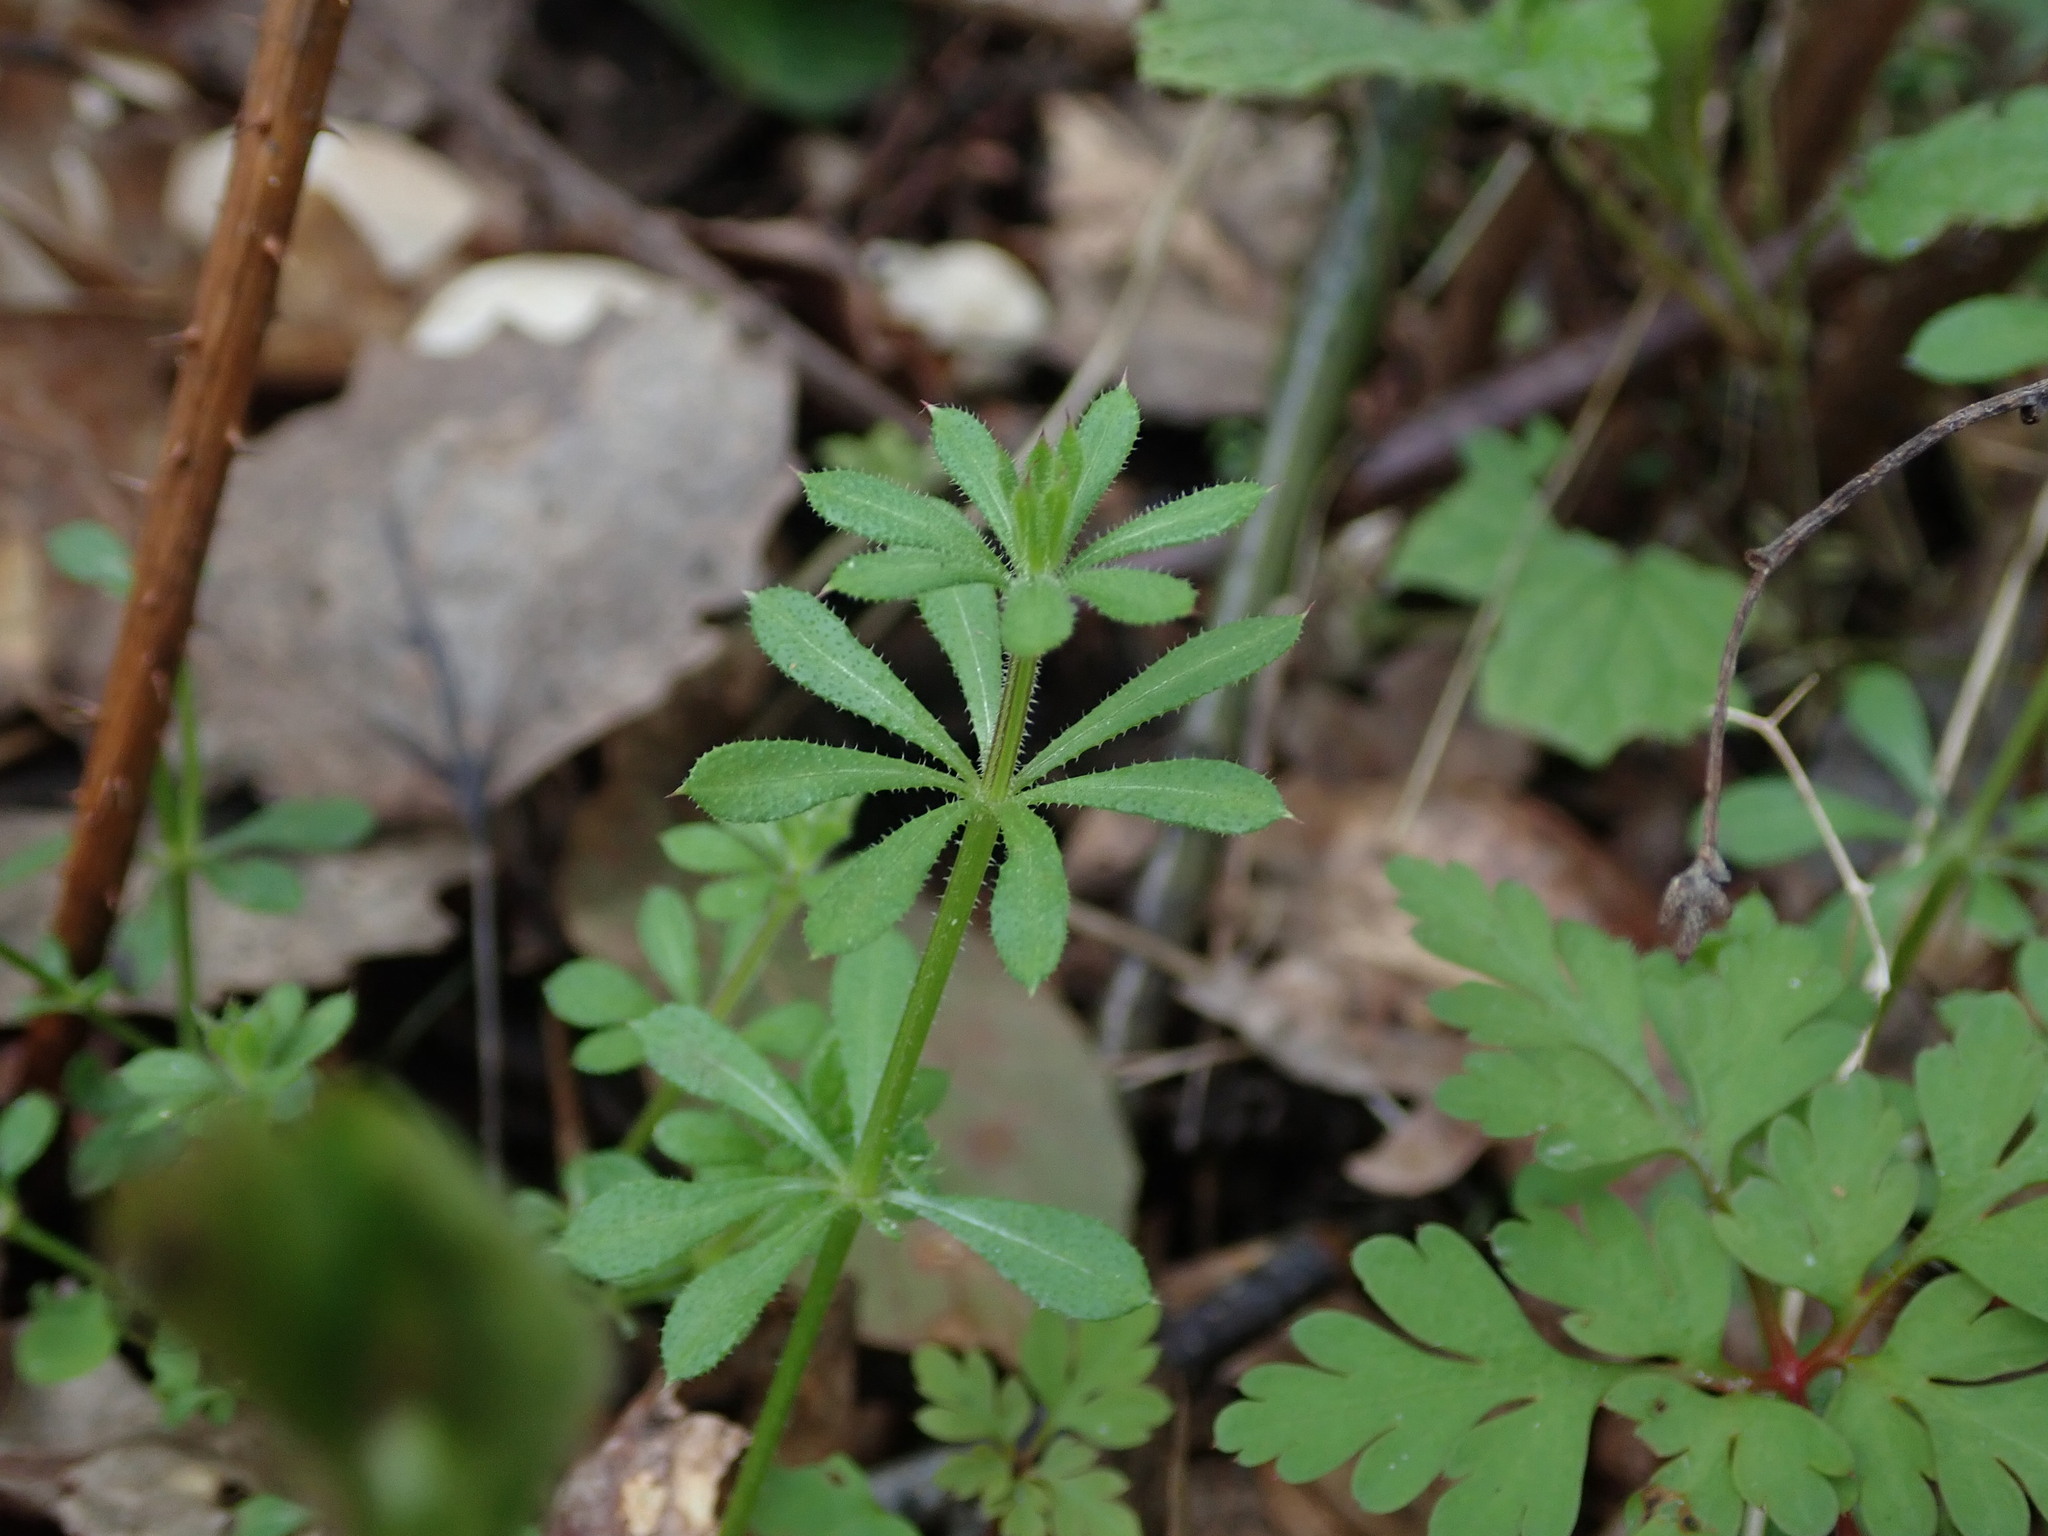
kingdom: Plantae
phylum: Tracheophyta
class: Magnoliopsida
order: Gentianales
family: Rubiaceae
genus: Galium
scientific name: Galium aparine
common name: Cleavers
